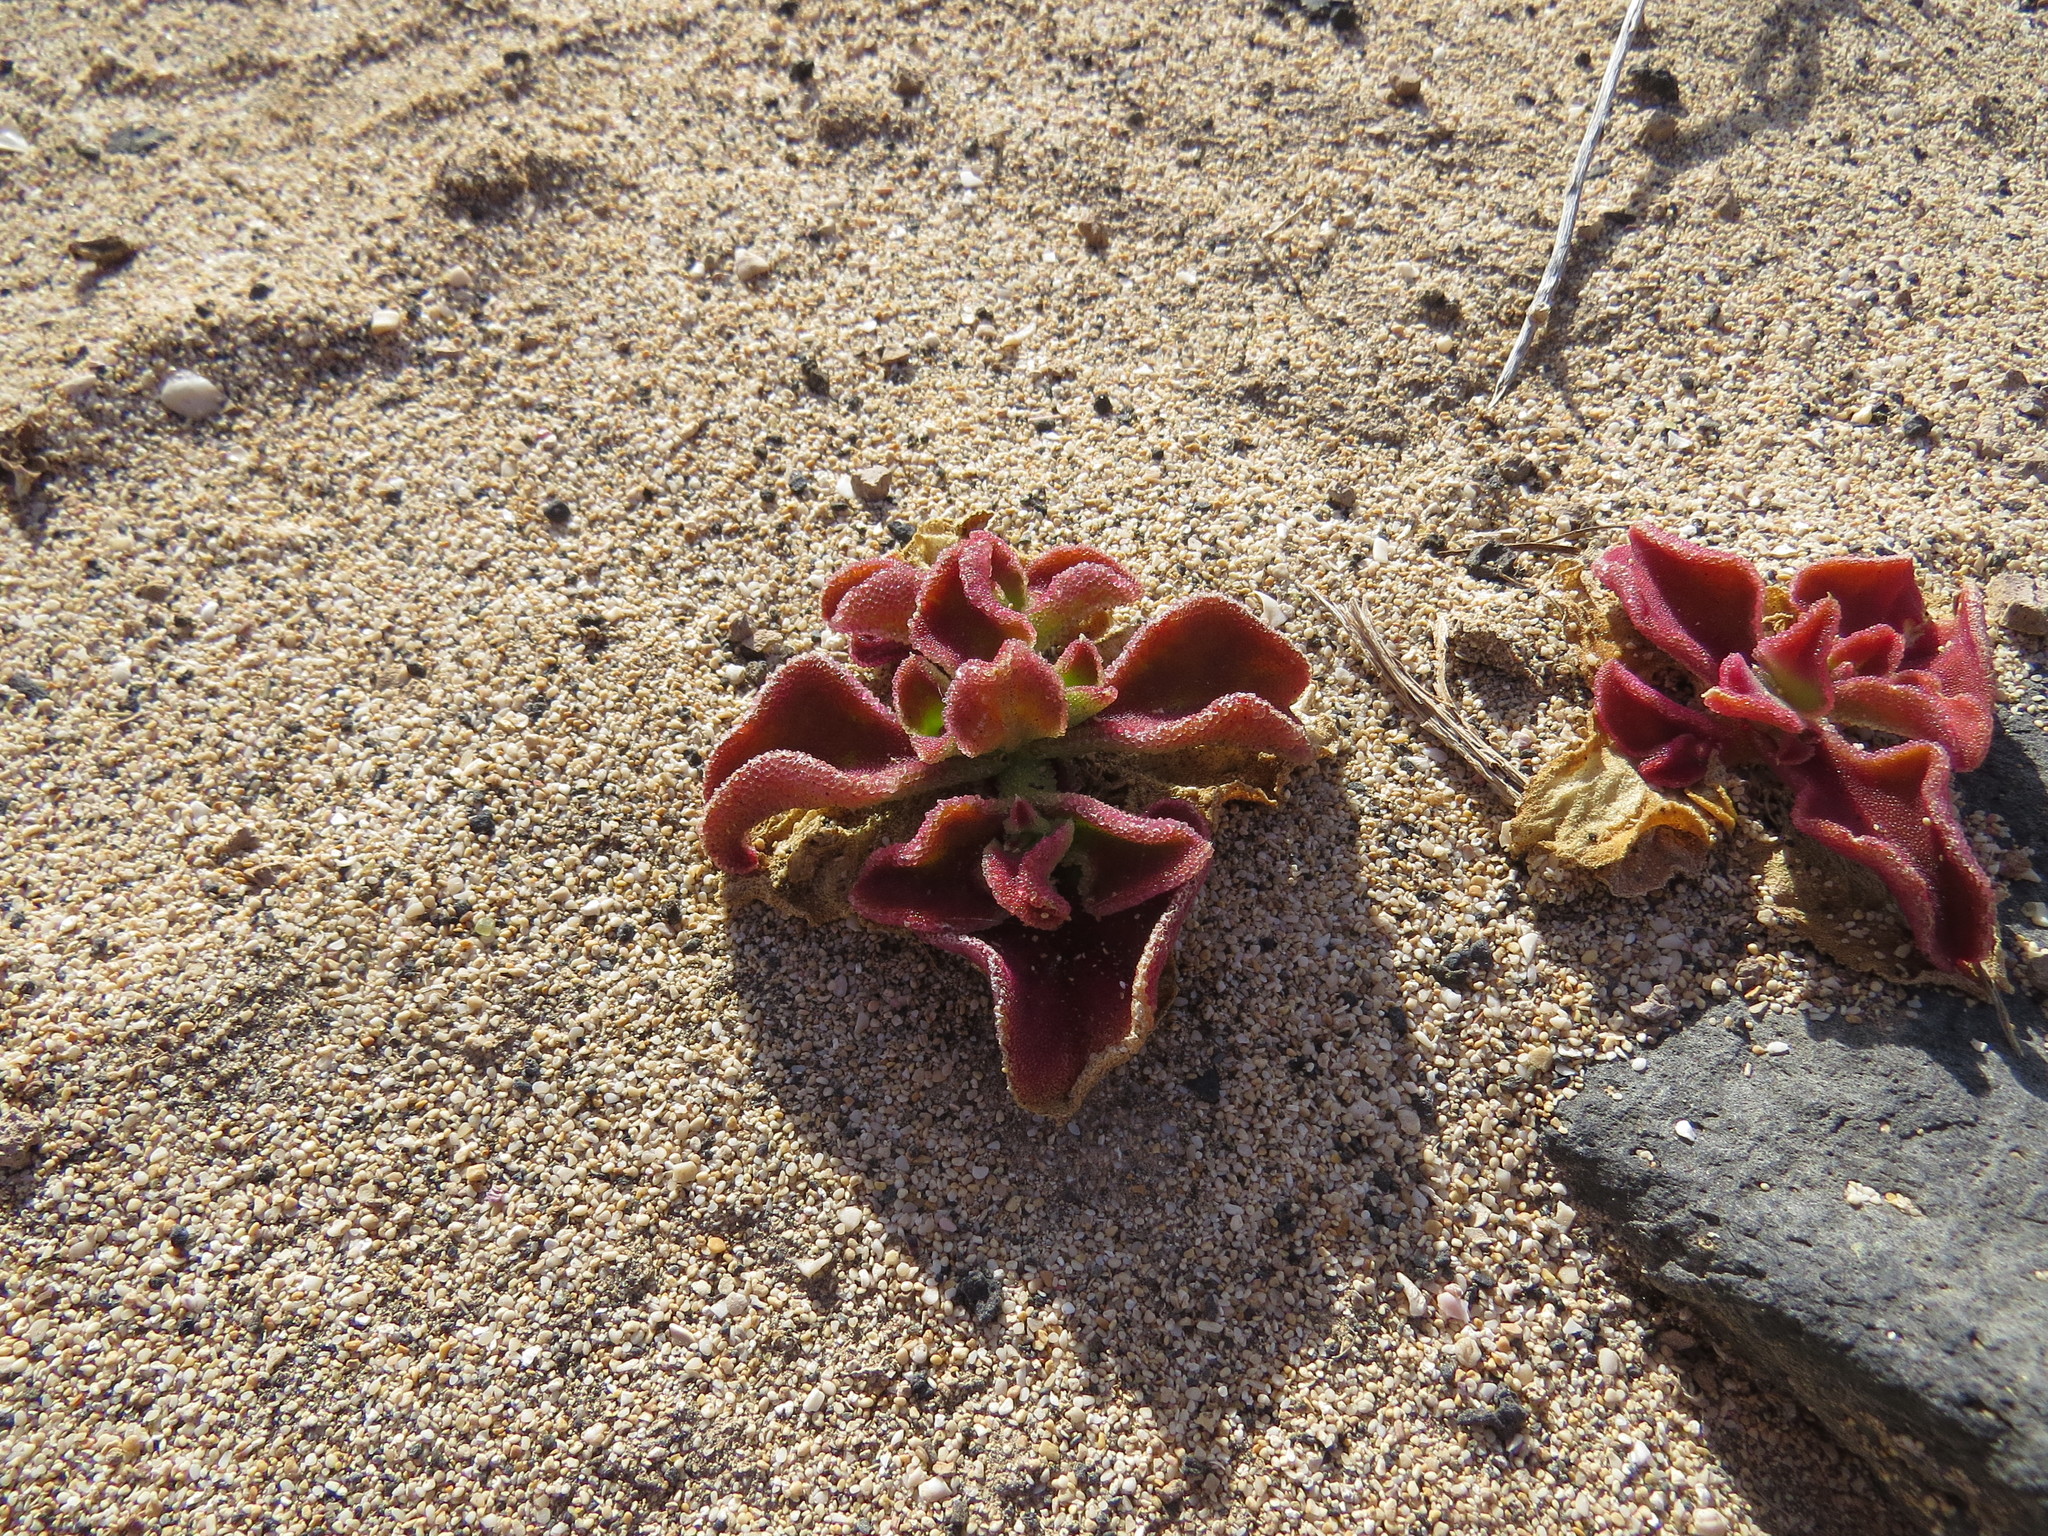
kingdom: Plantae
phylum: Tracheophyta
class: Magnoliopsida
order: Caryophyllales
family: Aizoaceae
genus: Mesembryanthemum
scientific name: Mesembryanthemum crystallinum
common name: Common iceplant
